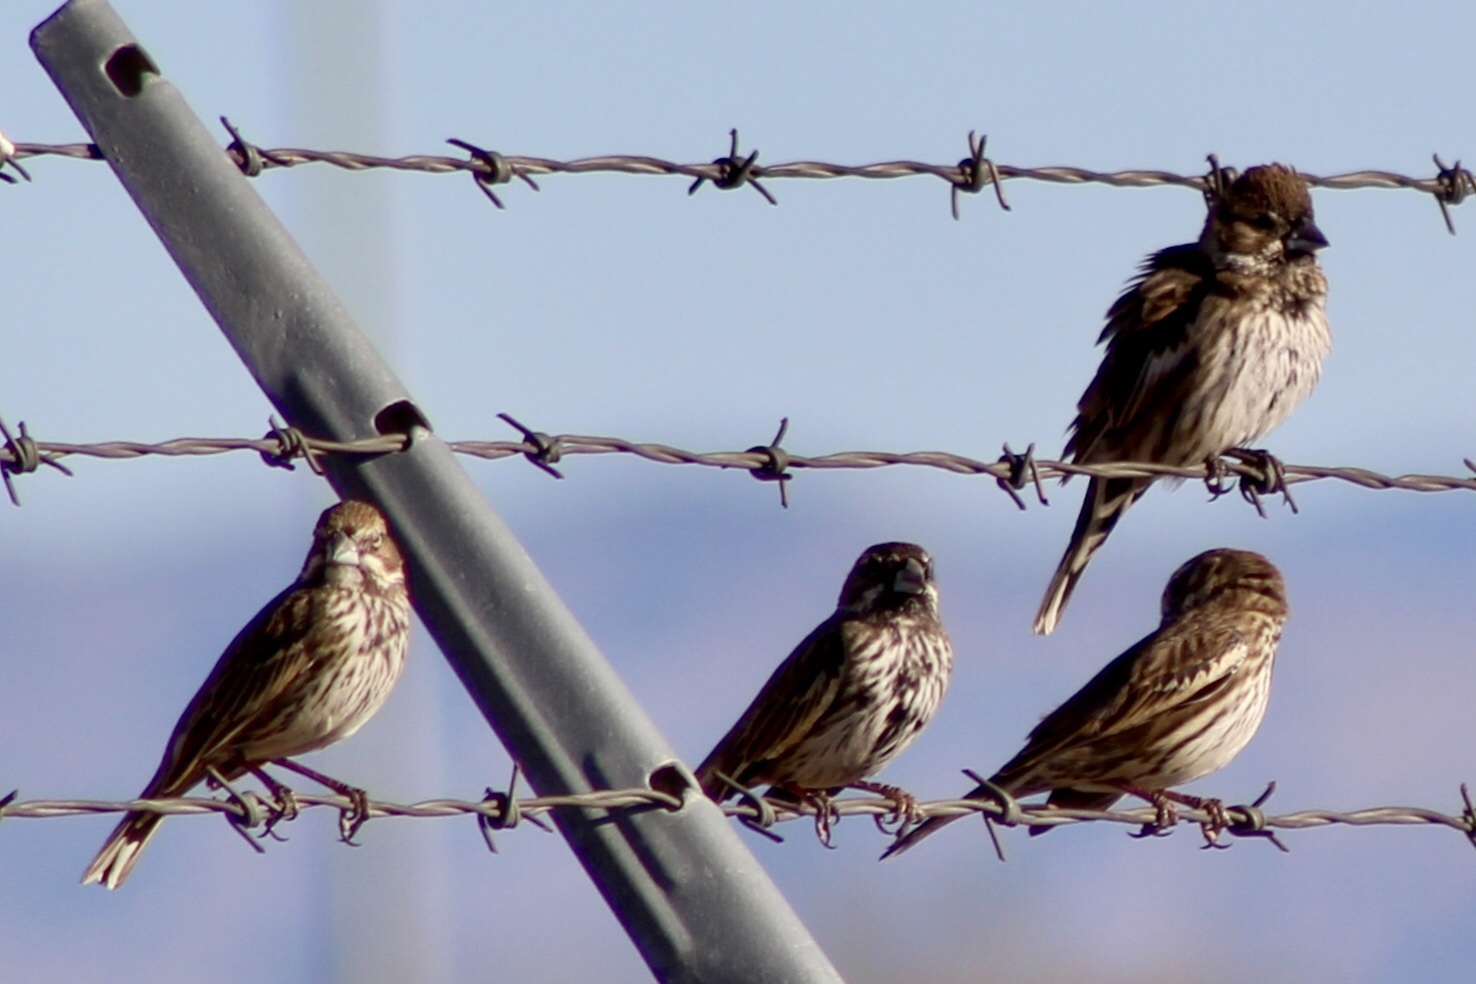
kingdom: Animalia
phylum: Chordata
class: Aves
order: Passeriformes
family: Passerellidae
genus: Calamospiza
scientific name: Calamospiza melanocorys
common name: Lark bunting
